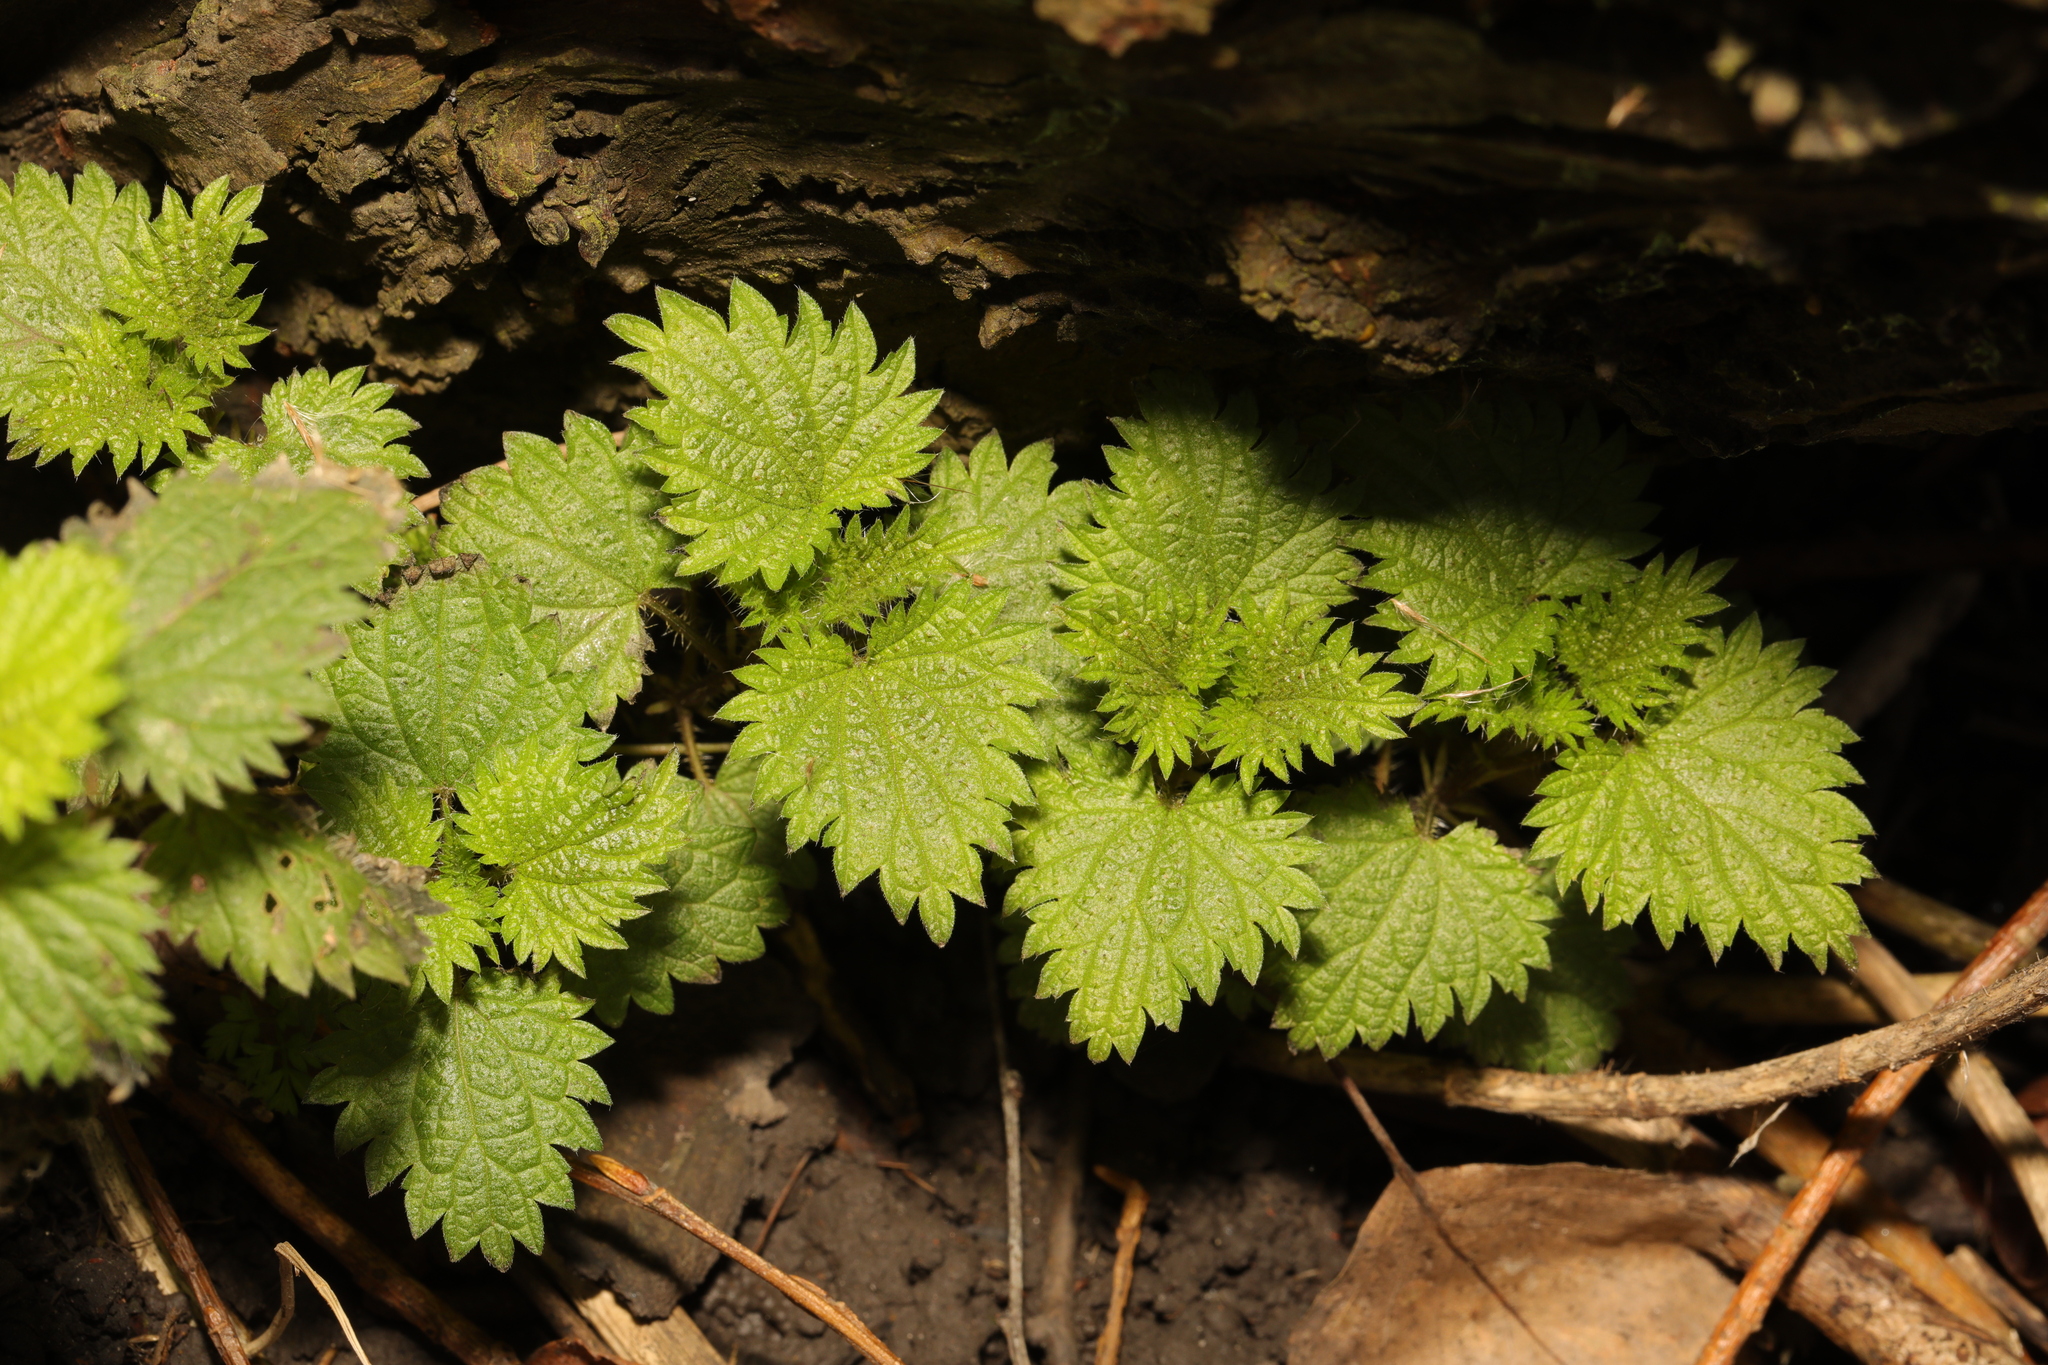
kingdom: Plantae
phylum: Tracheophyta
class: Magnoliopsida
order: Rosales
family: Urticaceae
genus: Urtica
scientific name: Urtica dioica
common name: Common nettle
